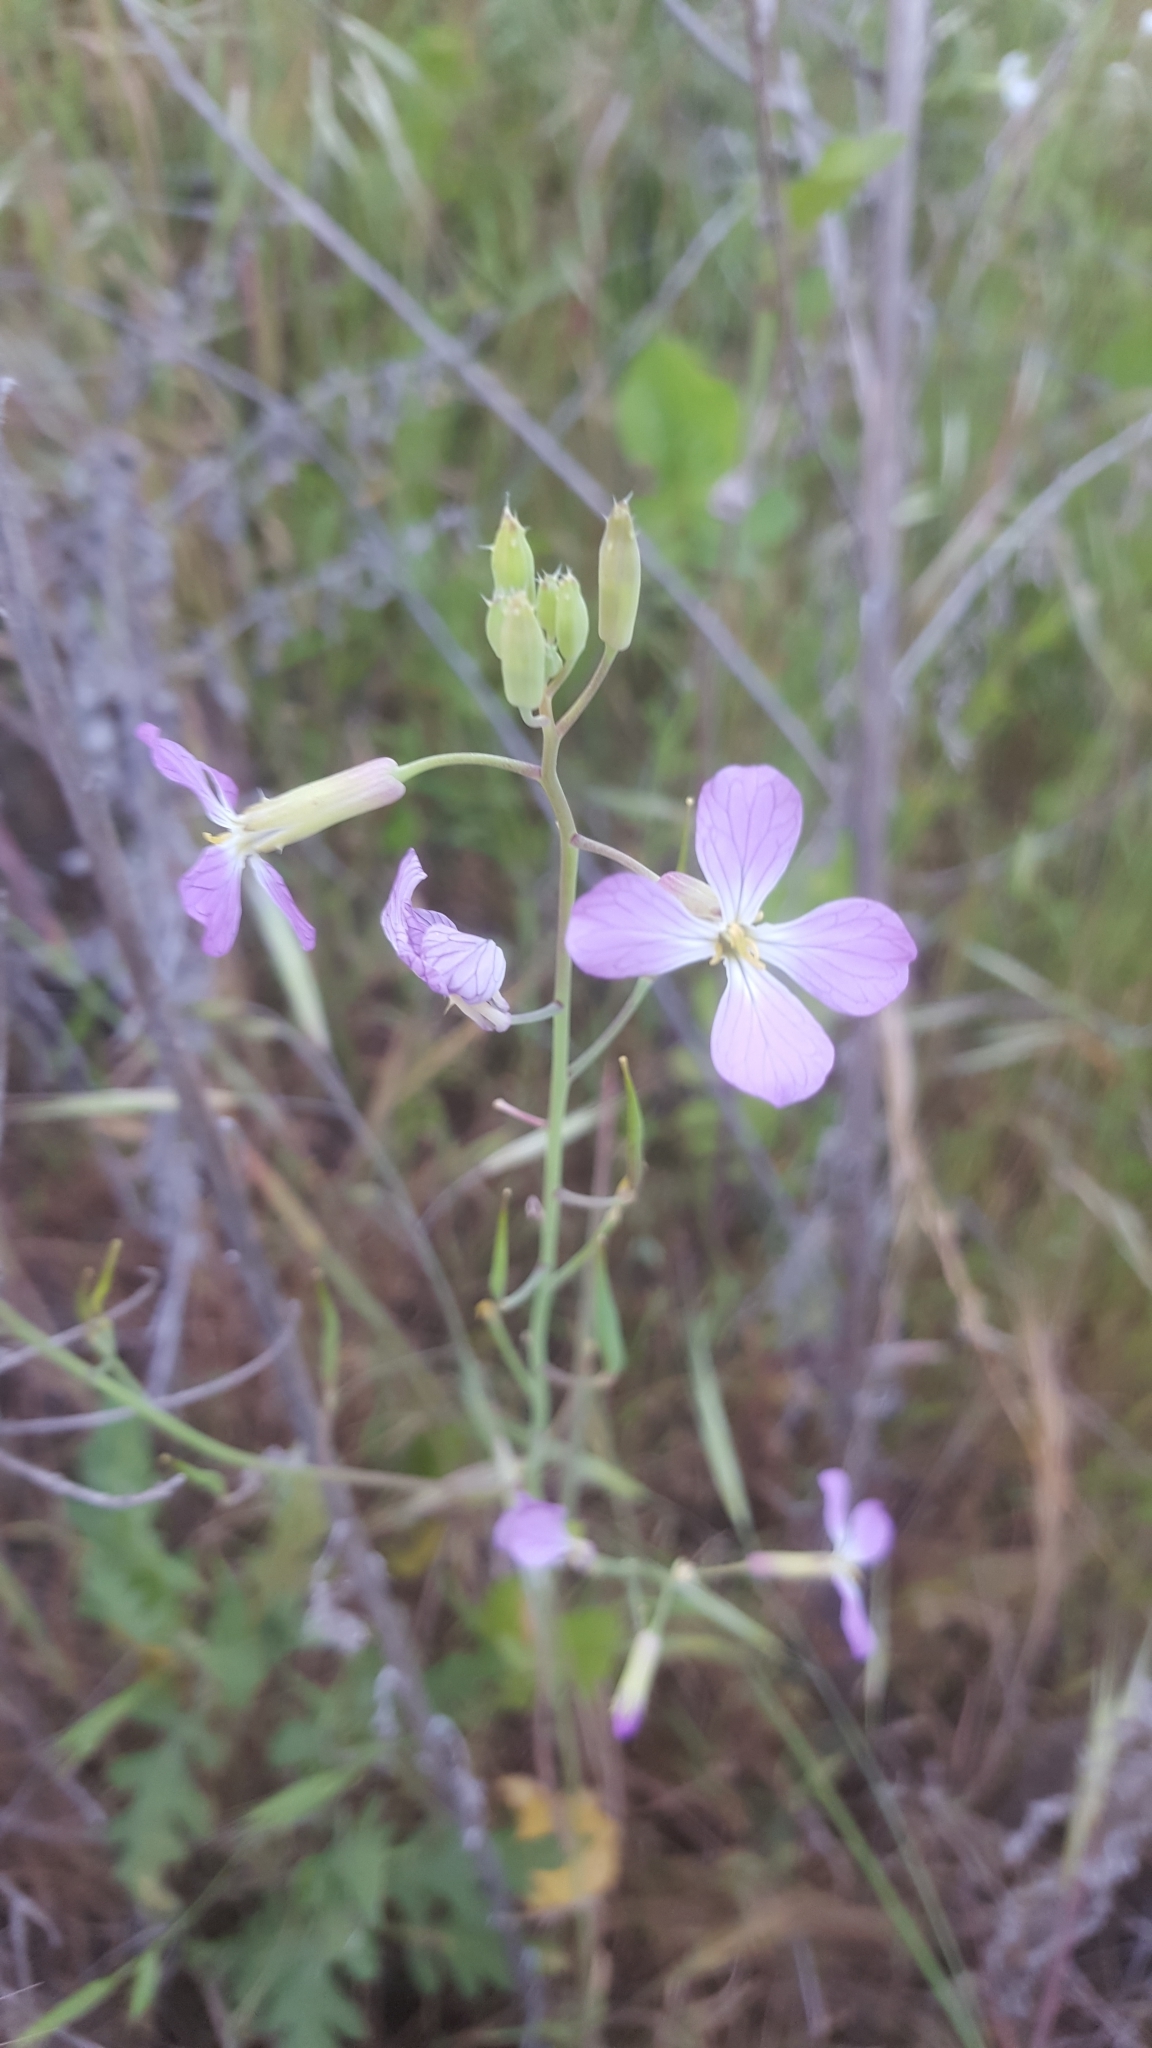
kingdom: Plantae
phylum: Tracheophyta
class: Magnoliopsida
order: Brassicales
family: Brassicaceae
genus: Raphanus
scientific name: Raphanus sativus
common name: Cultivated radish
